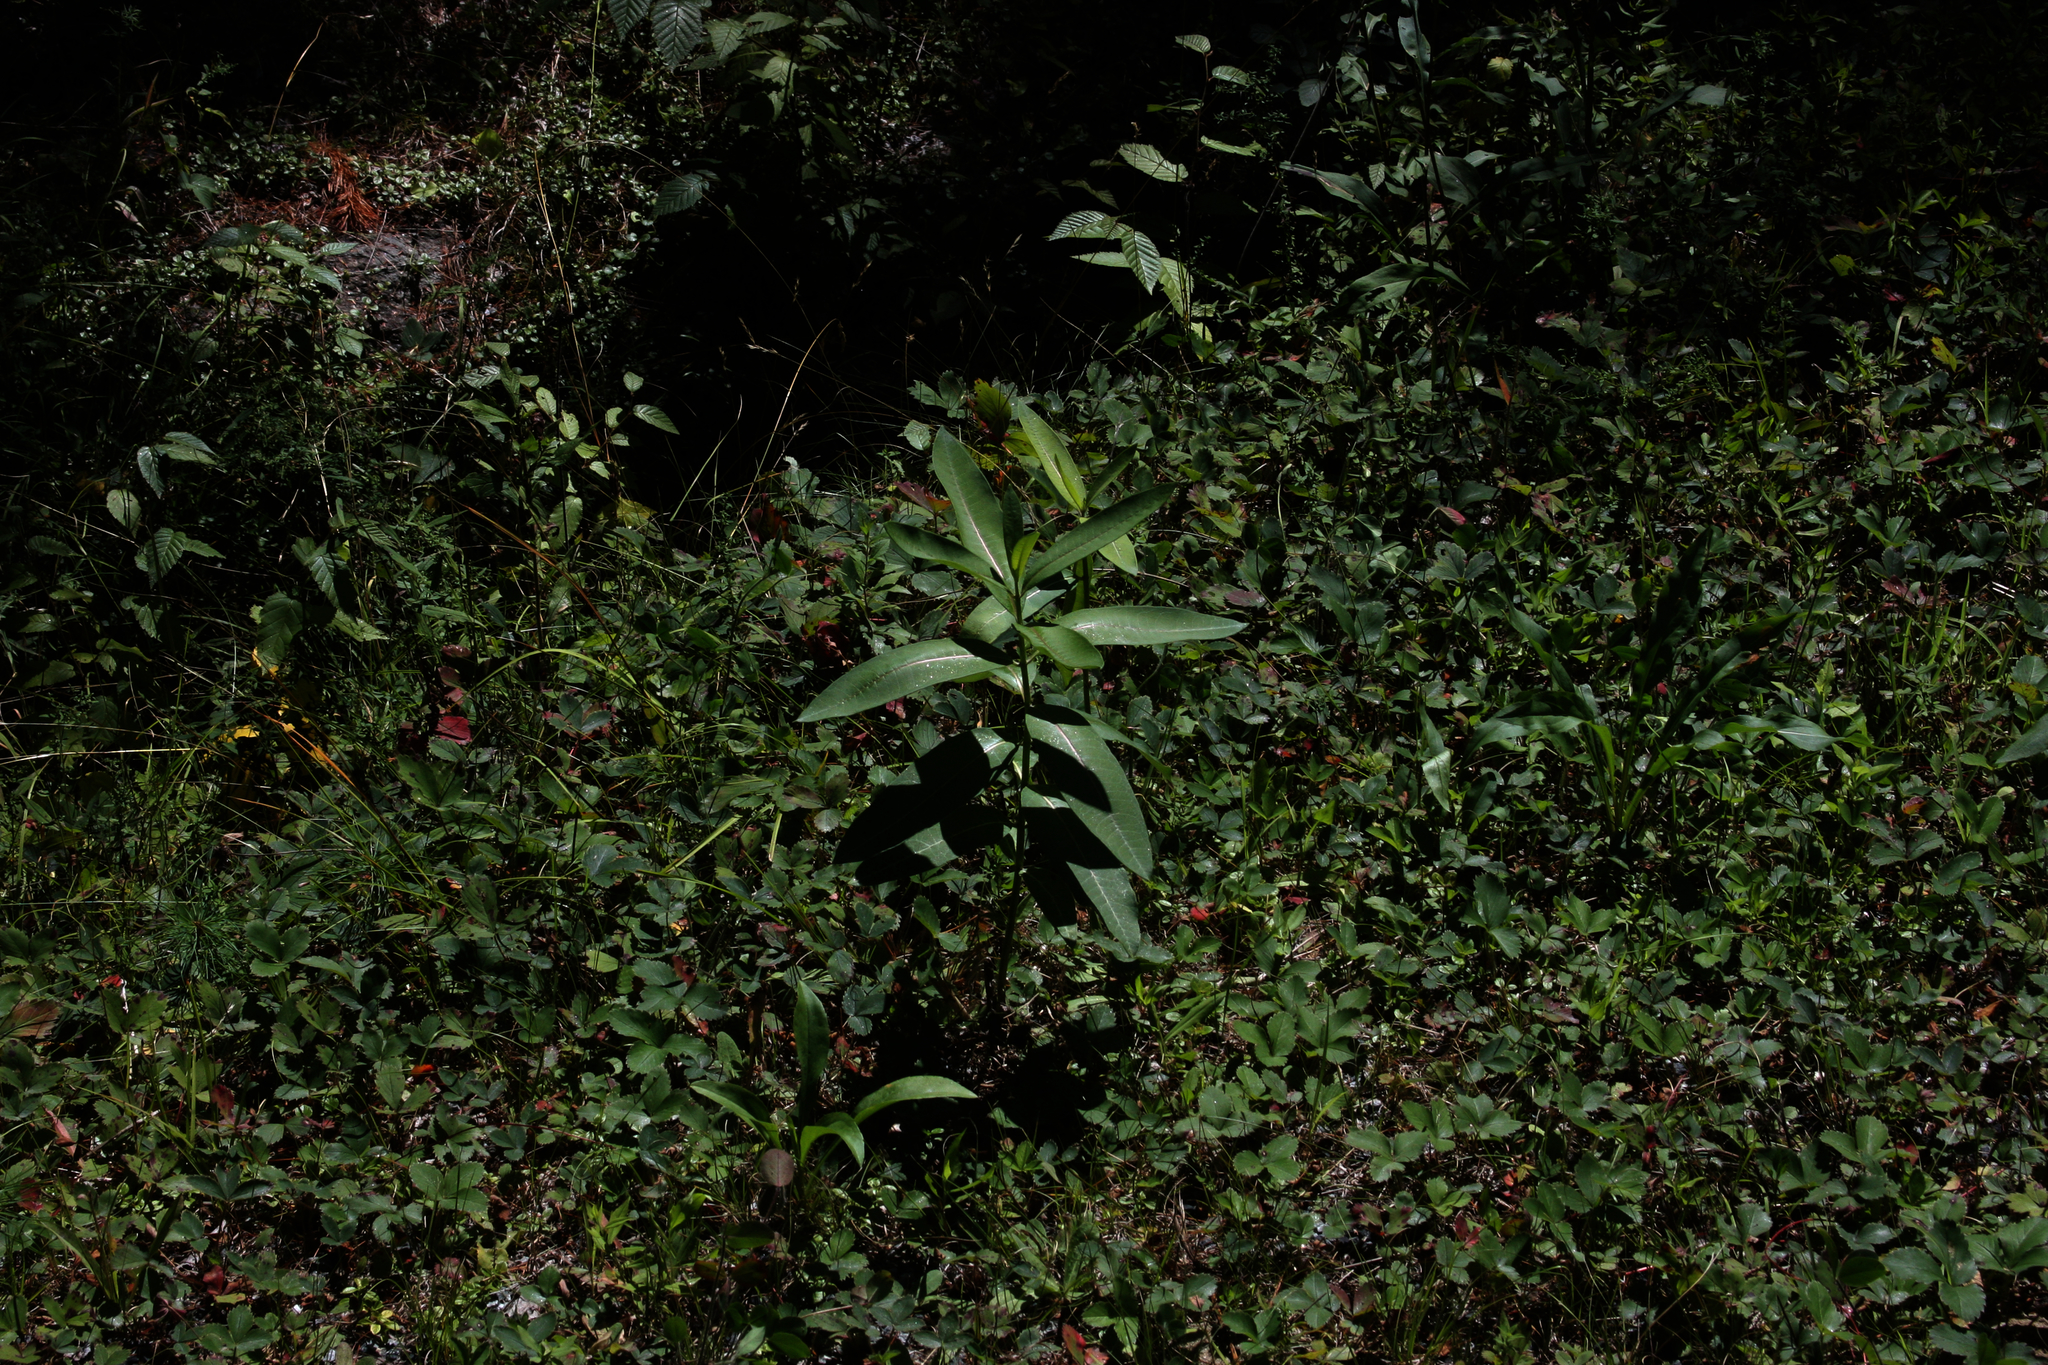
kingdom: Plantae
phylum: Tracheophyta
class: Magnoliopsida
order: Gentianales
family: Apocynaceae
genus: Asclepias
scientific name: Asclepias syriaca
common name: Common milkweed
